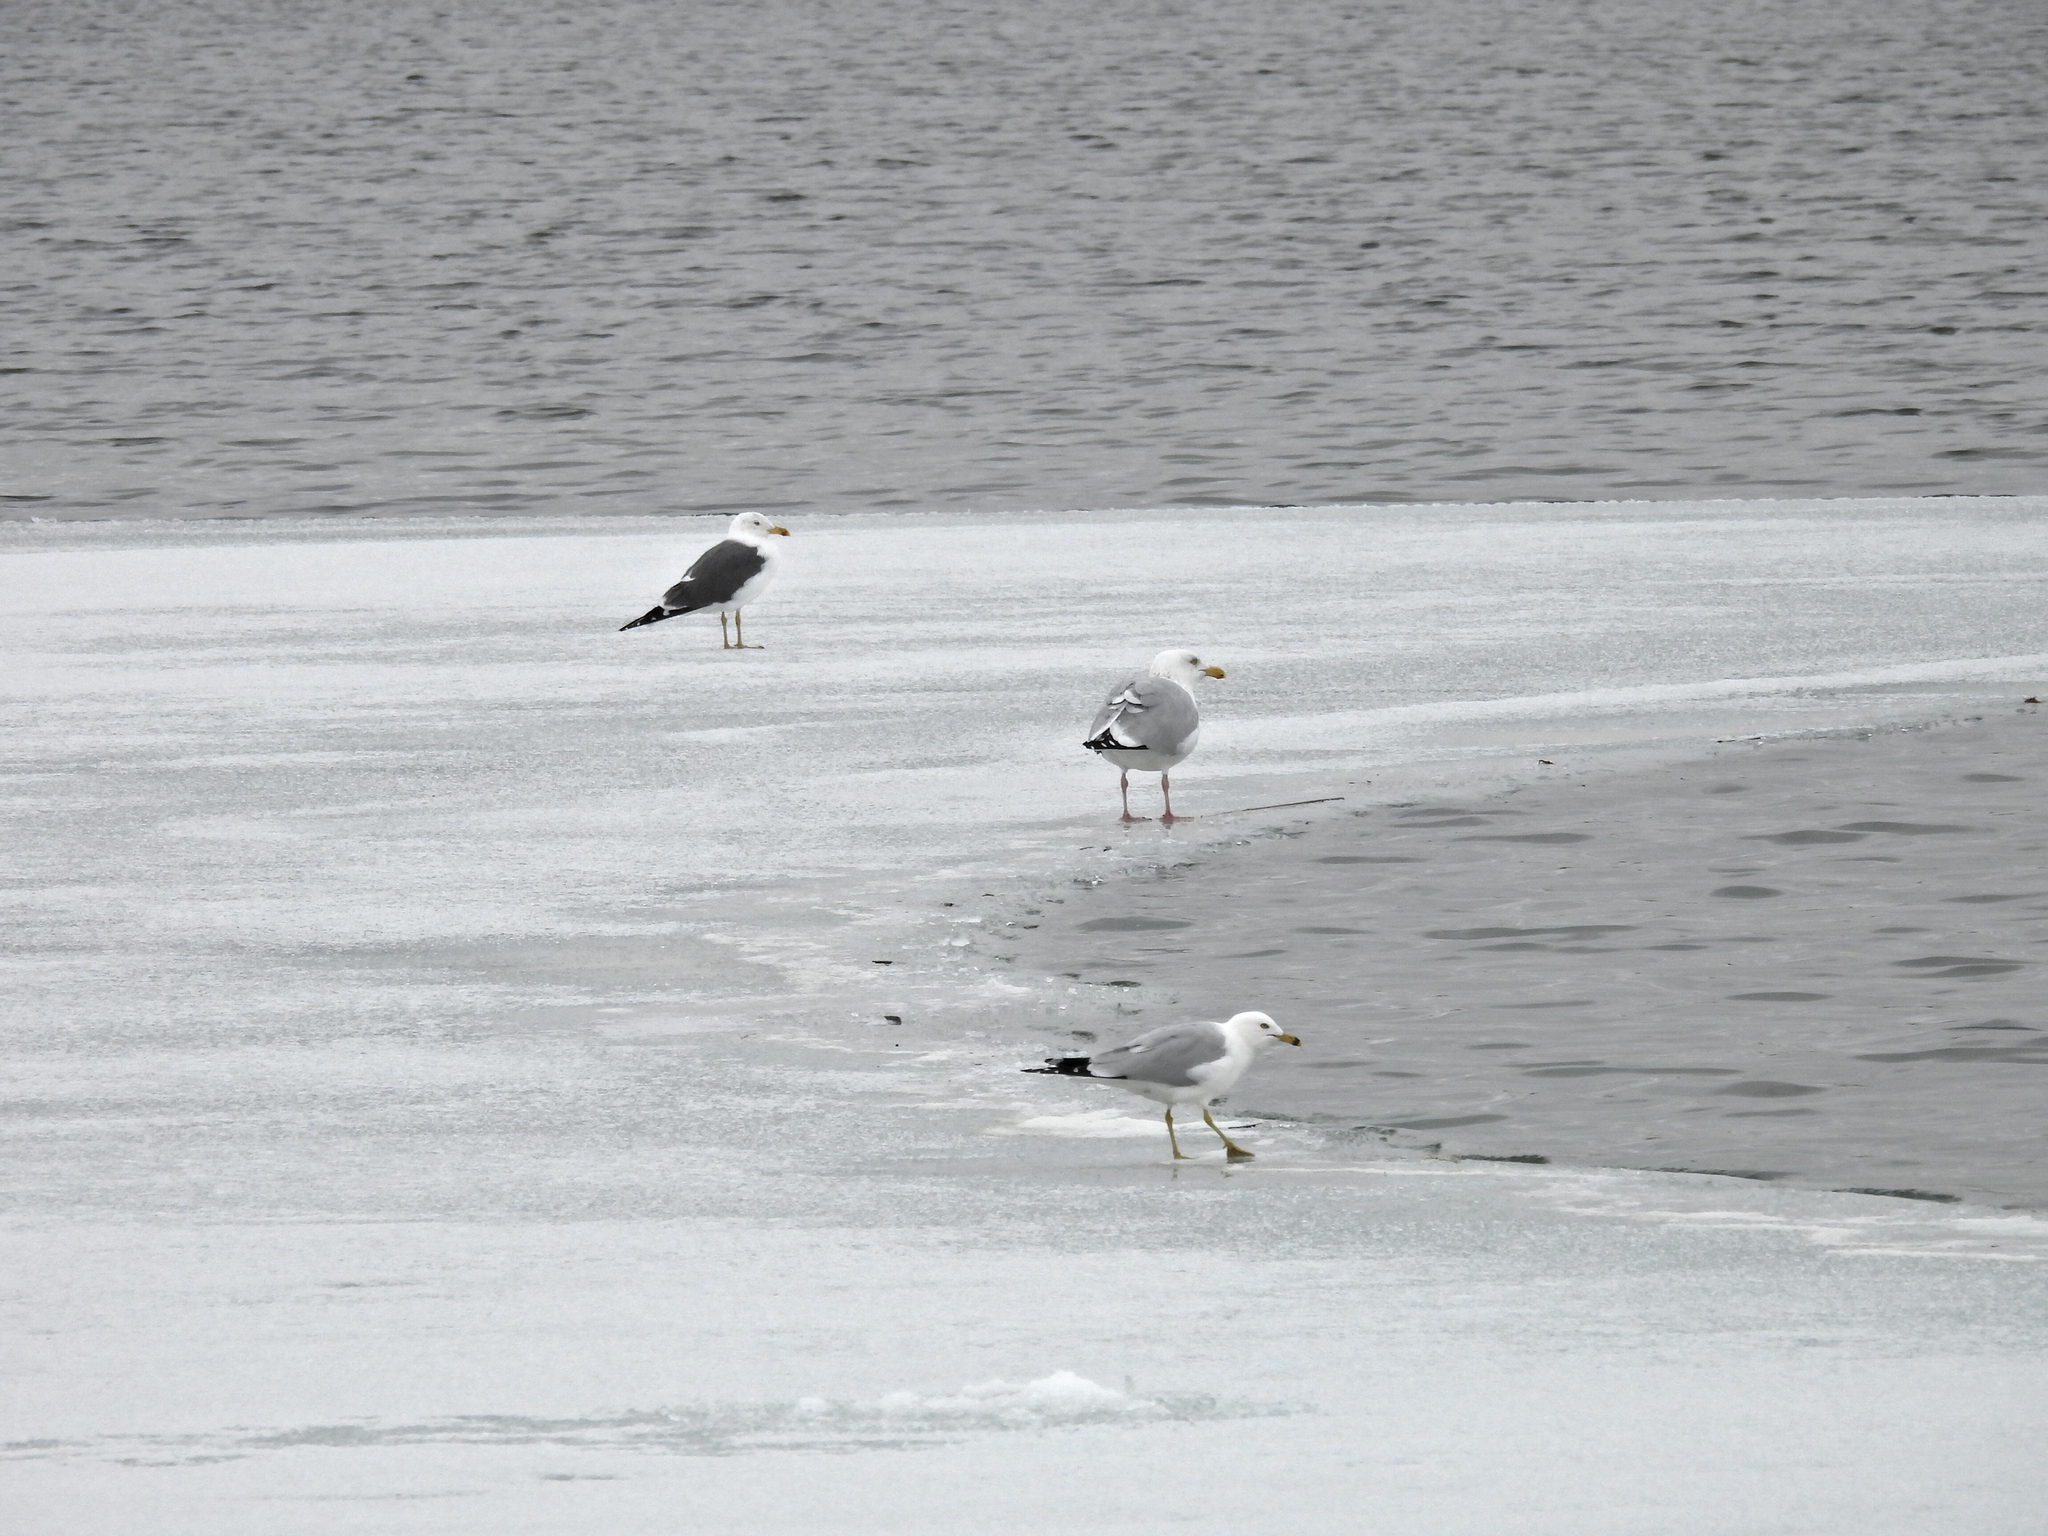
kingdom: Animalia
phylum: Chordata
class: Aves
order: Charadriiformes
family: Laridae
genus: Larus
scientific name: Larus fuscus
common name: Lesser black-backed gull
